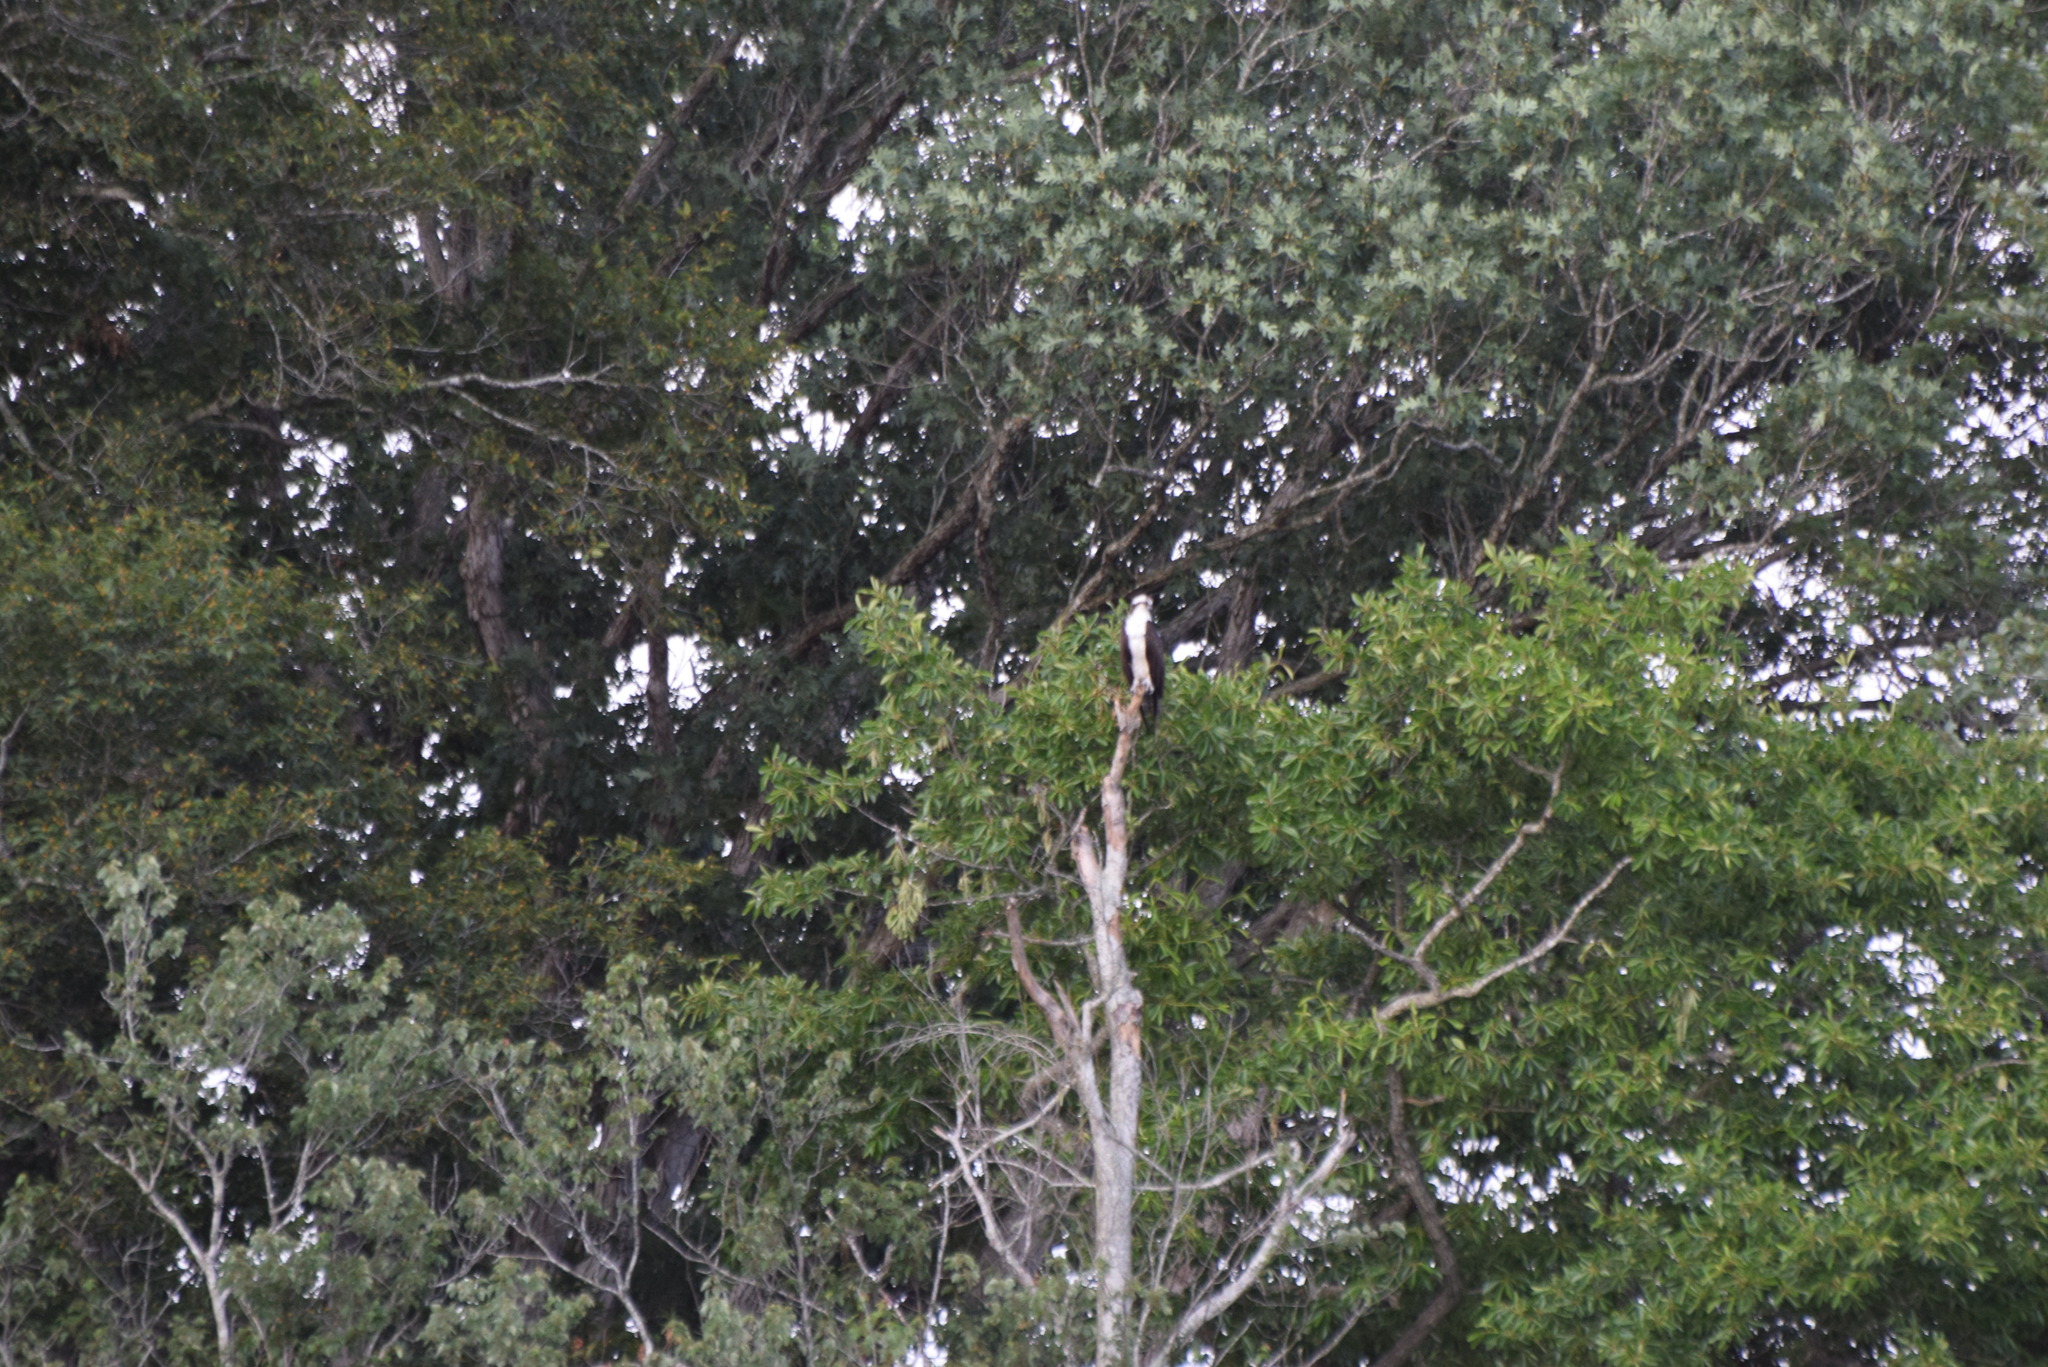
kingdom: Animalia
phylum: Chordata
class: Aves
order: Accipitriformes
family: Pandionidae
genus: Pandion
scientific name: Pandion haliaetus
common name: Osprey
